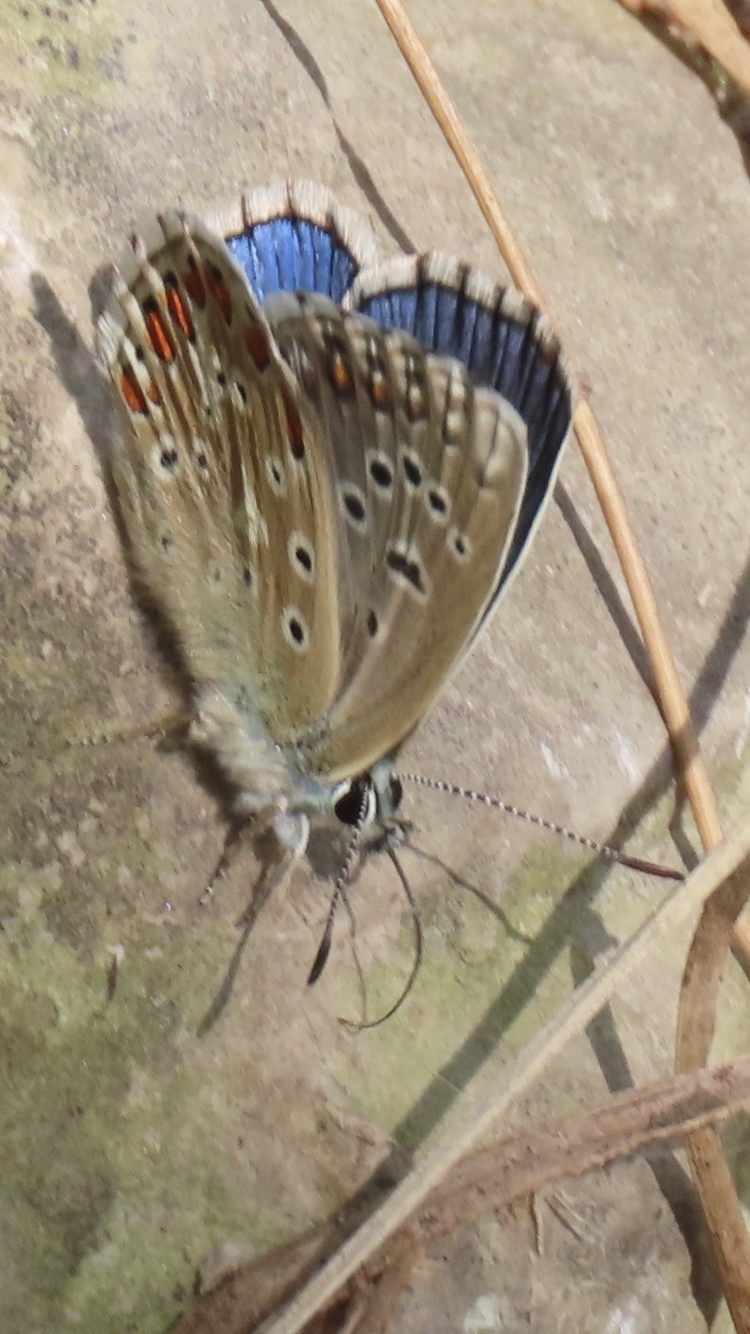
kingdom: Animalia
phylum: Arthropoda
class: Insecta
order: Lepidoptera
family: Lycaenidae
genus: Lysandra
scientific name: Lysandra bellargus
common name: Adonis blue
